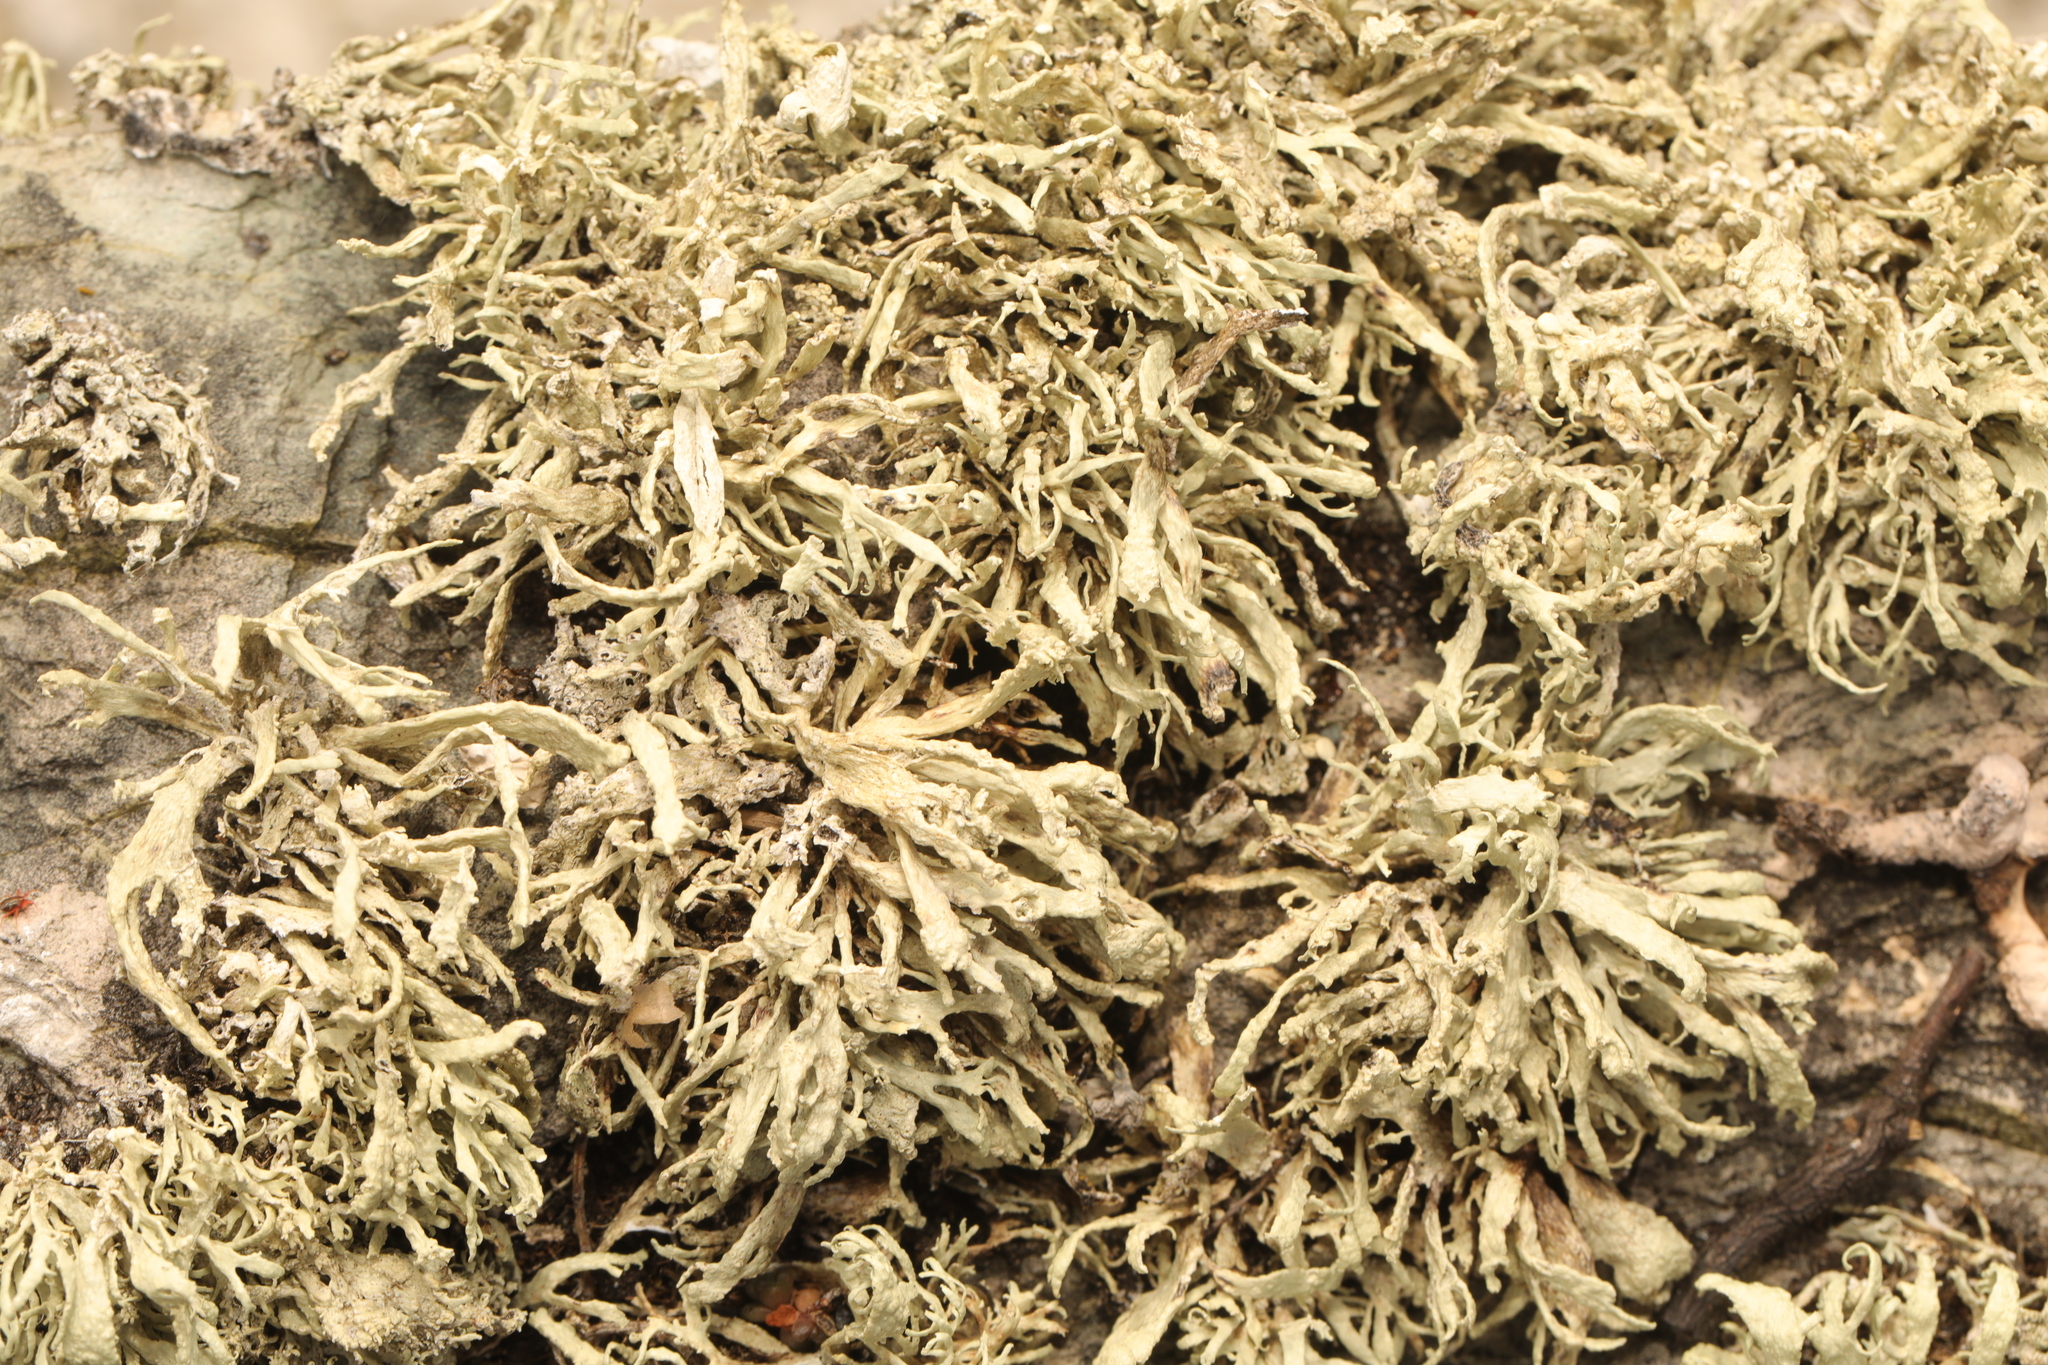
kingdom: Fungi
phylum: Ascomycota
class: Lecanoromycetes
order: Lecanorales
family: Ramalinaceae
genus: Ramalina
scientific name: Ramalina siliquosa
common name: Sea ivory
